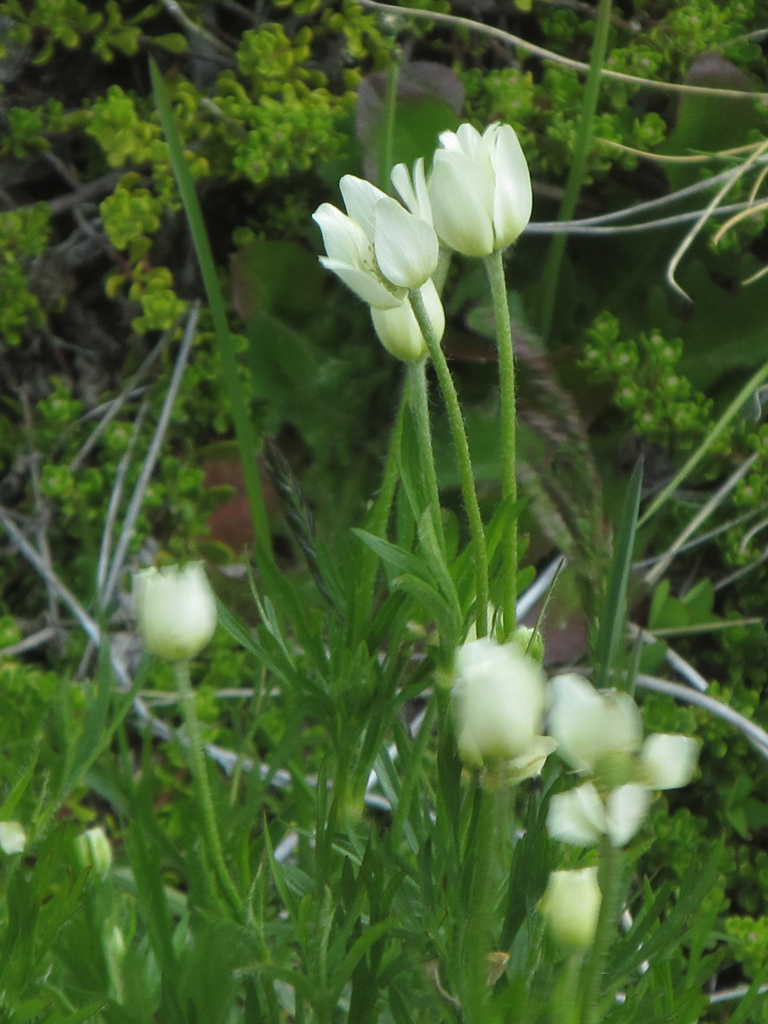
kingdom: Plantae
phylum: Tracheophyta
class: Magnoliopsida
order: Ranunculales
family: Ranunculaceae
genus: Anemone
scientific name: Anemone multifida
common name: Bird's-foot anemone
